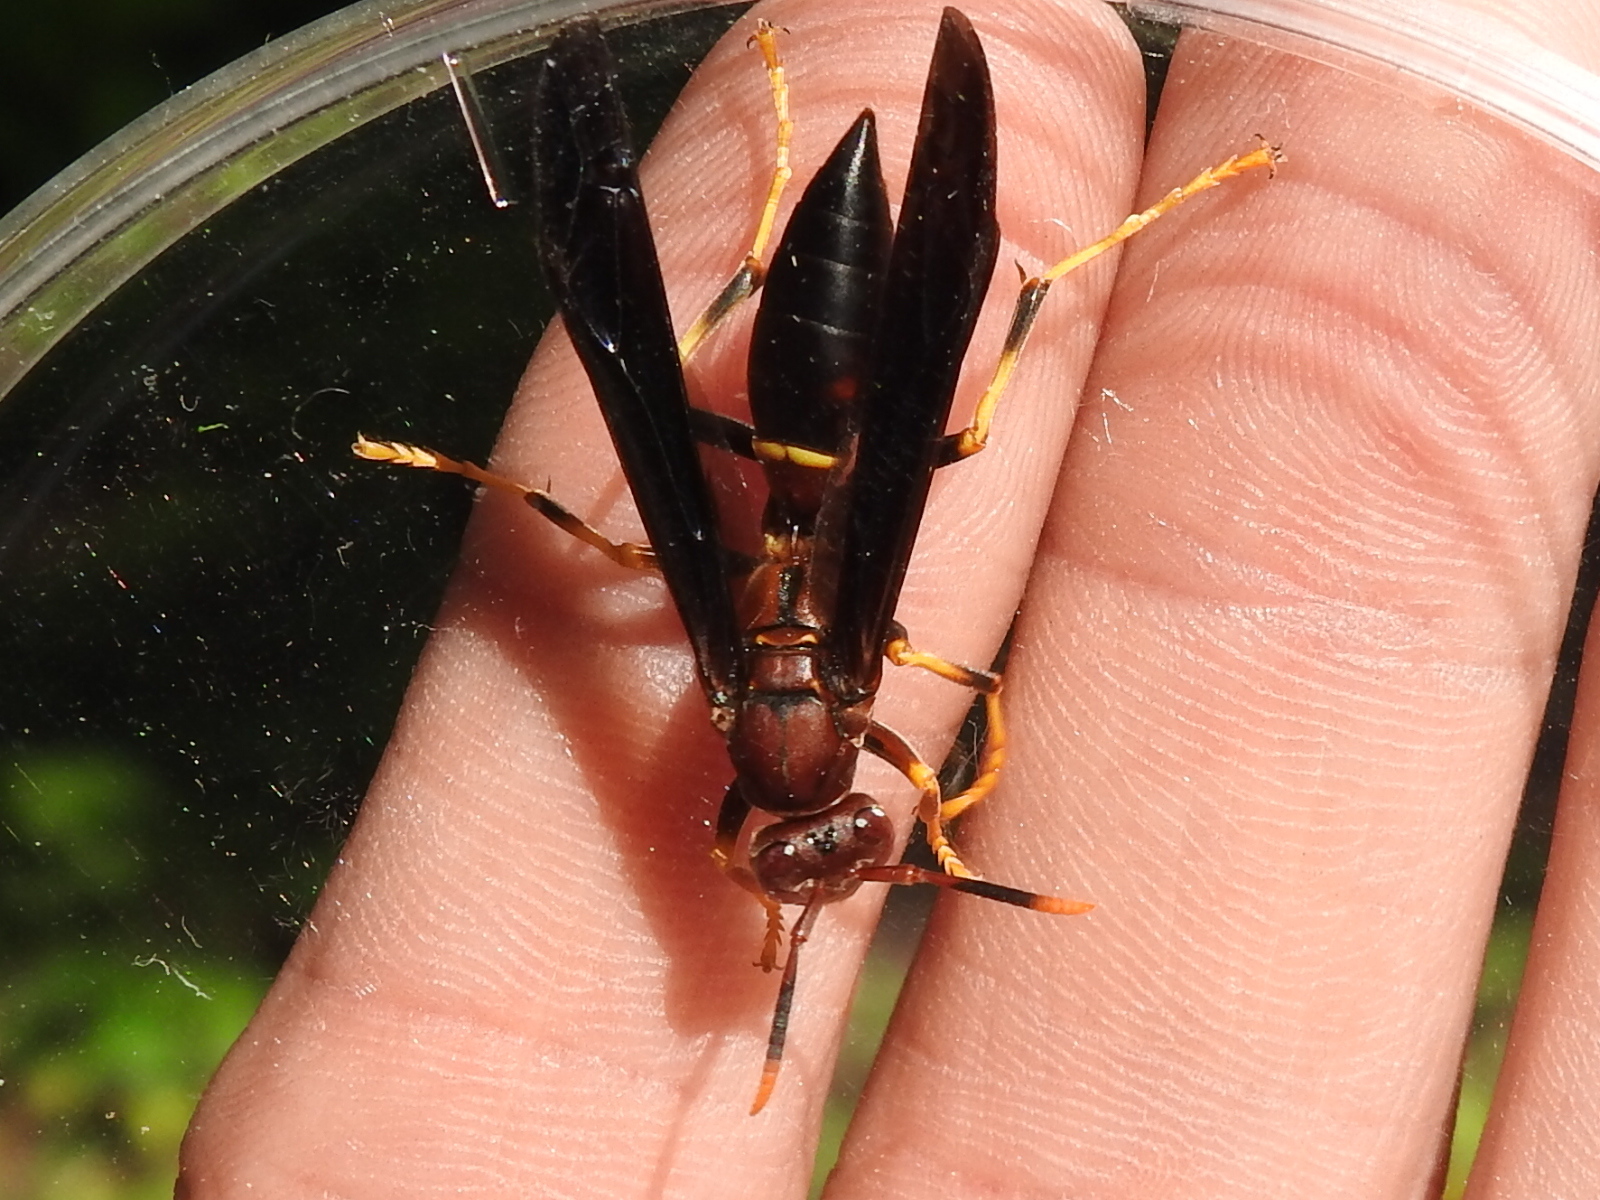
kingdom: Animalia
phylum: Arthropoda
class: Insecta
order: Hymenoptera
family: Eumenidae
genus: Polistes
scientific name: Polistes annularis
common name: Ringed paper wasp
